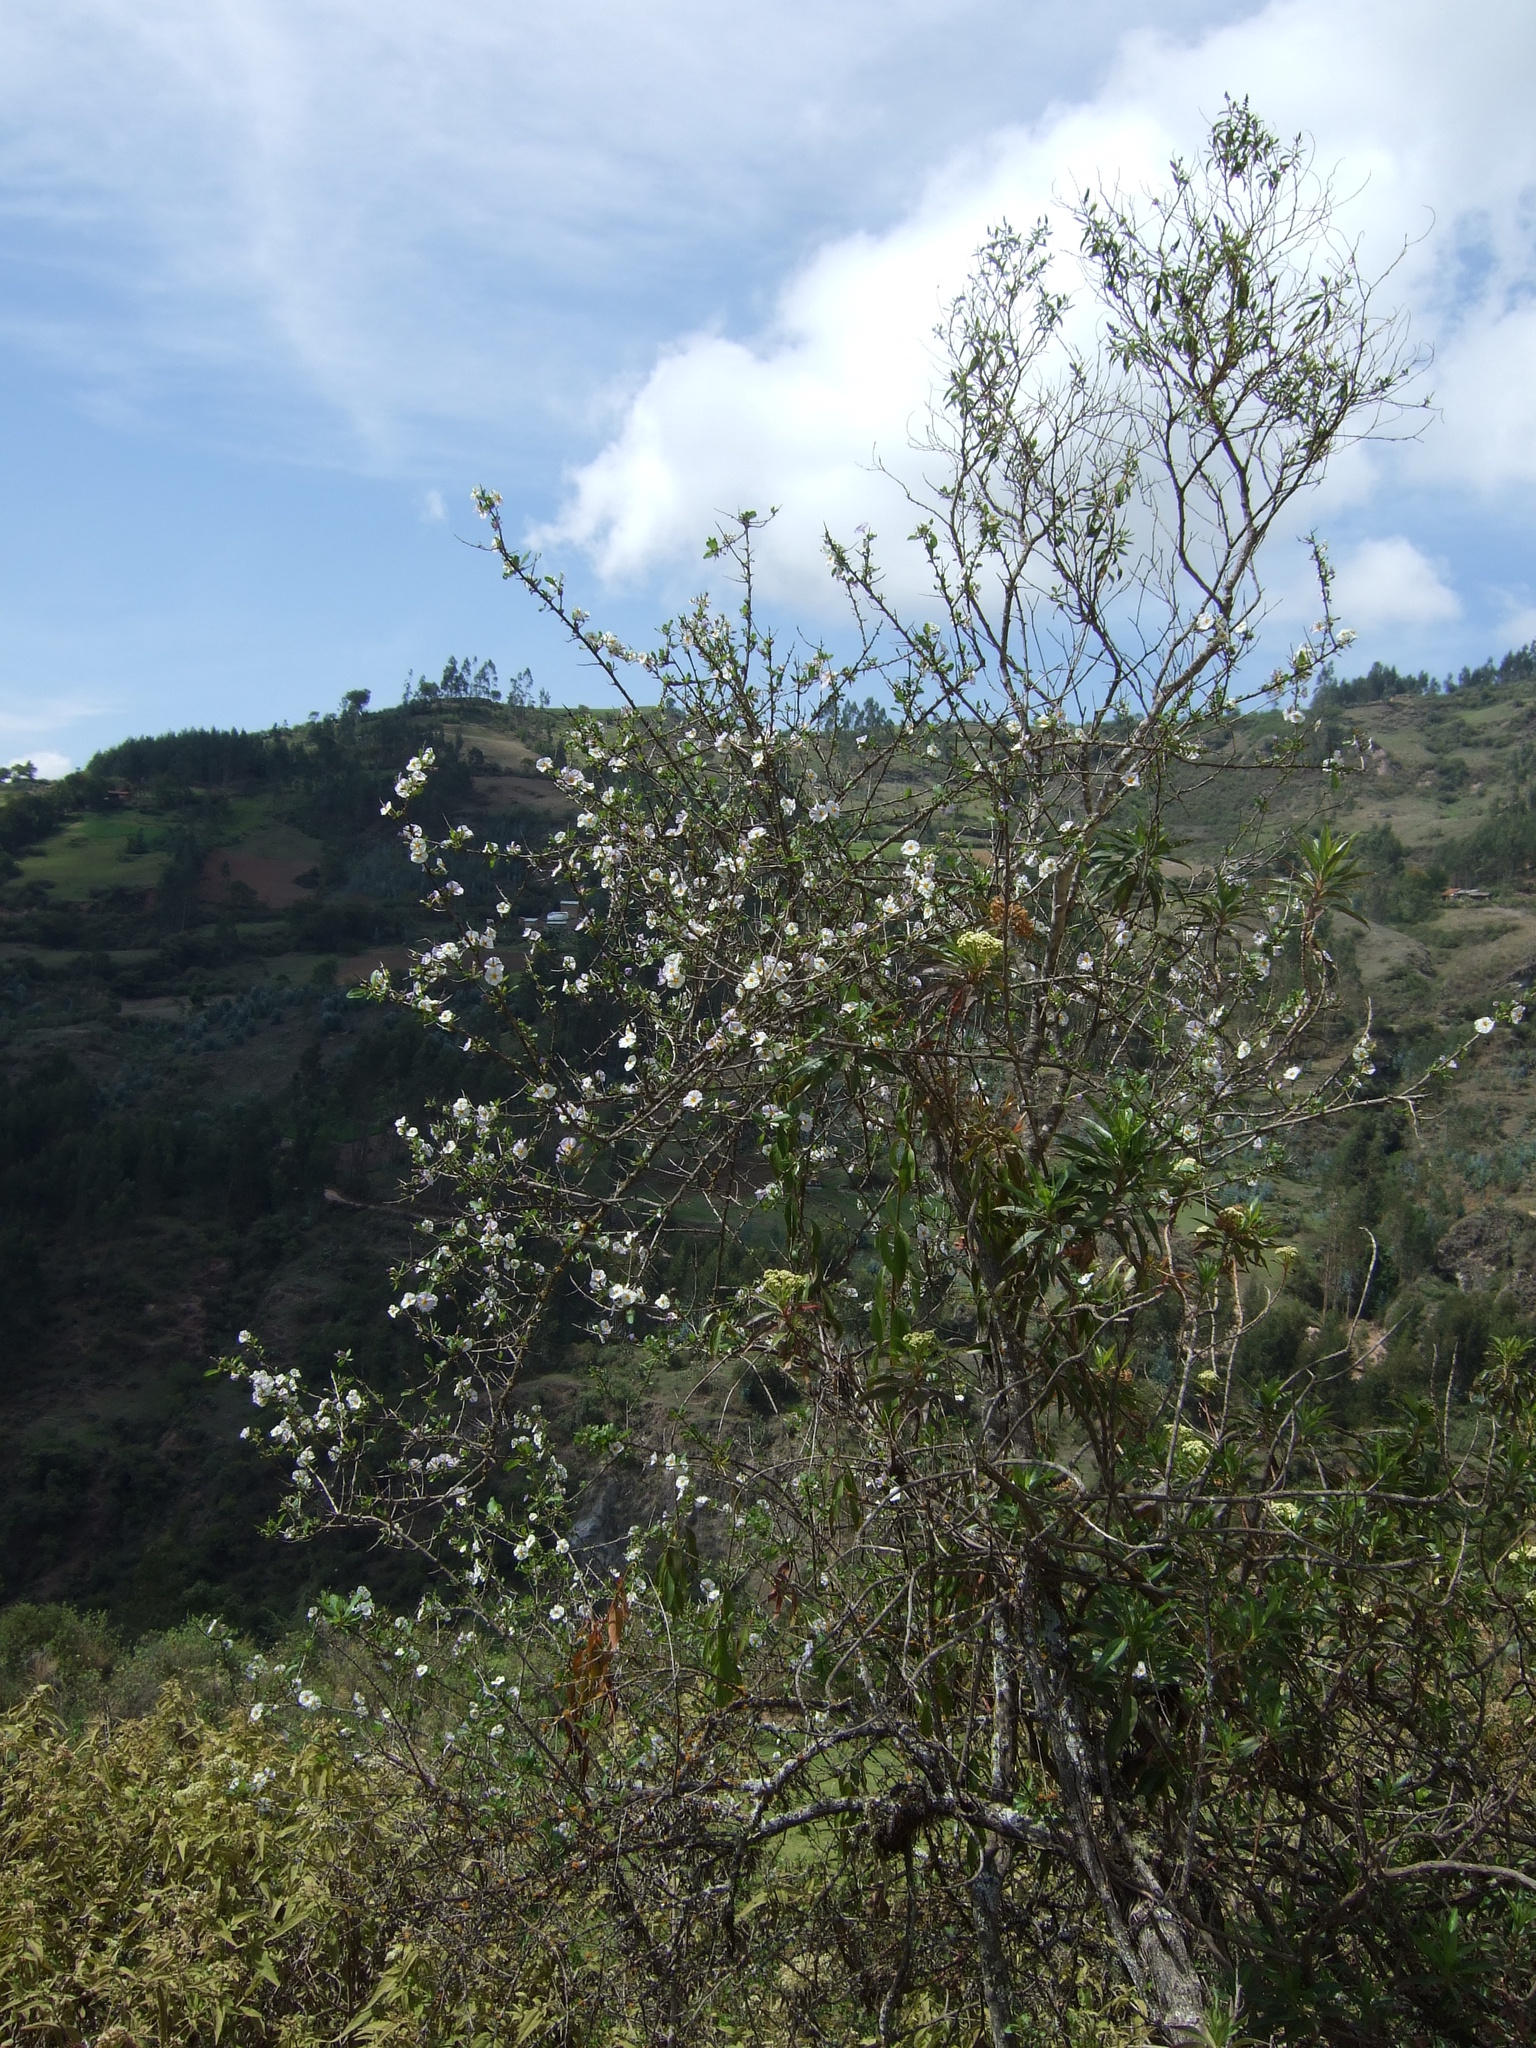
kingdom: Plantae
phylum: Tracheophyta
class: Magnoliopsida
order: Solanales
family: Solanaceae
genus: Lycianthes
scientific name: Lycianthes lycioides
